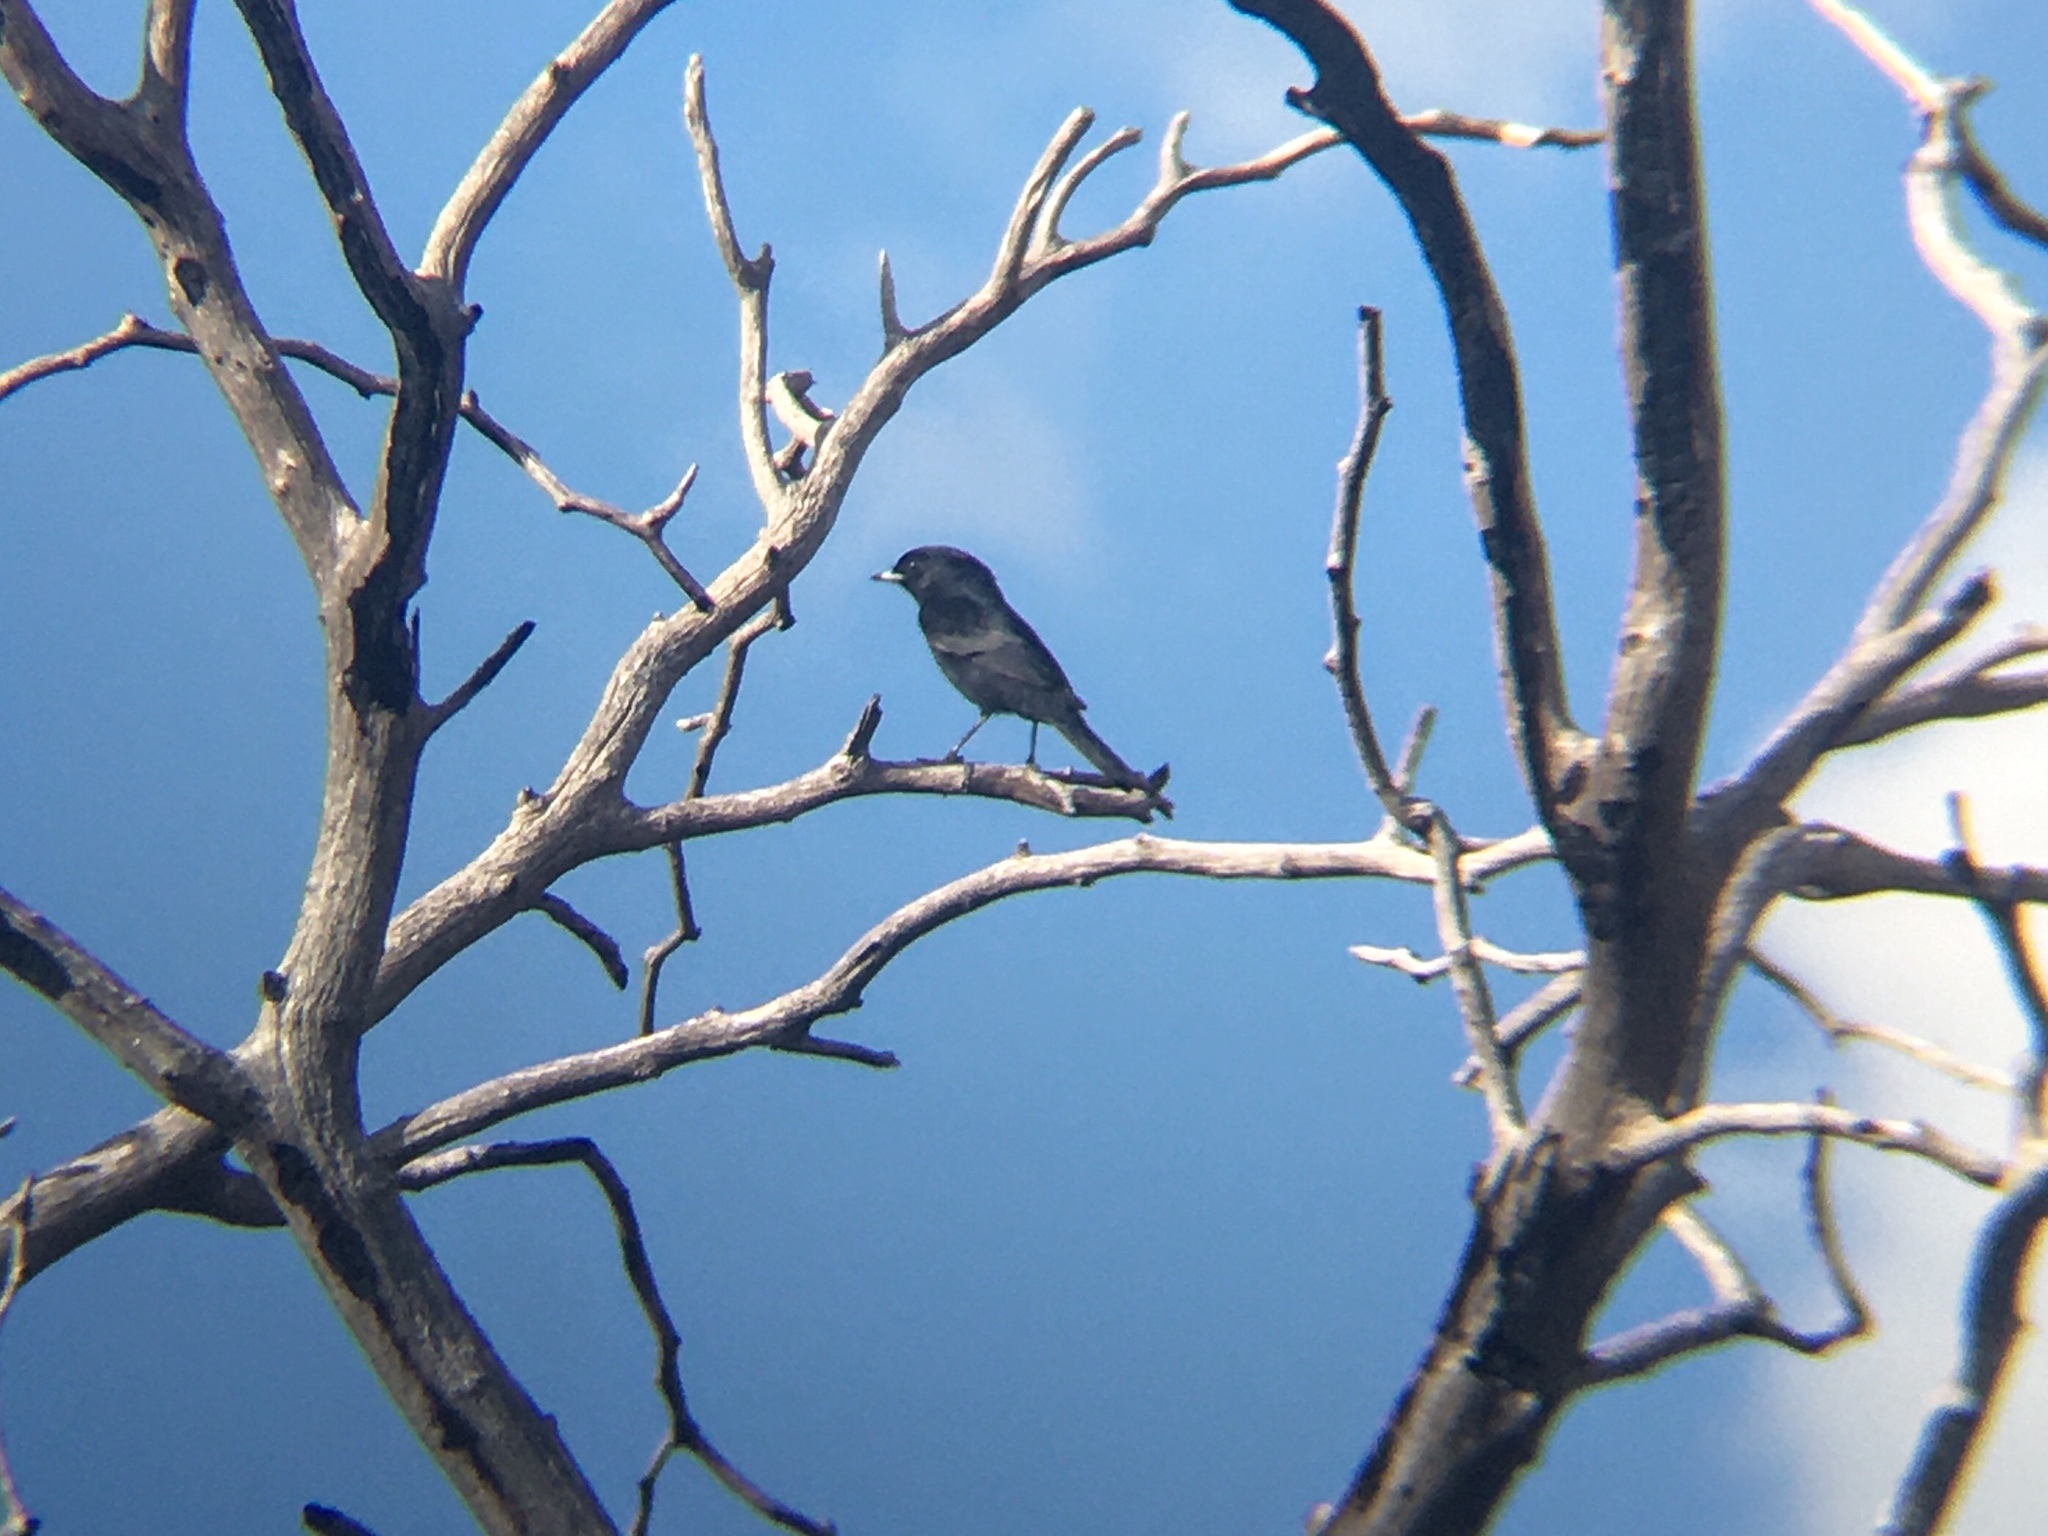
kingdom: Animalia
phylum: Chordata
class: Aves
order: Passeriformes
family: Tyrannidae
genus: Knipolegus
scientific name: Knipolegus aterrimus
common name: White-winged black tyrant
